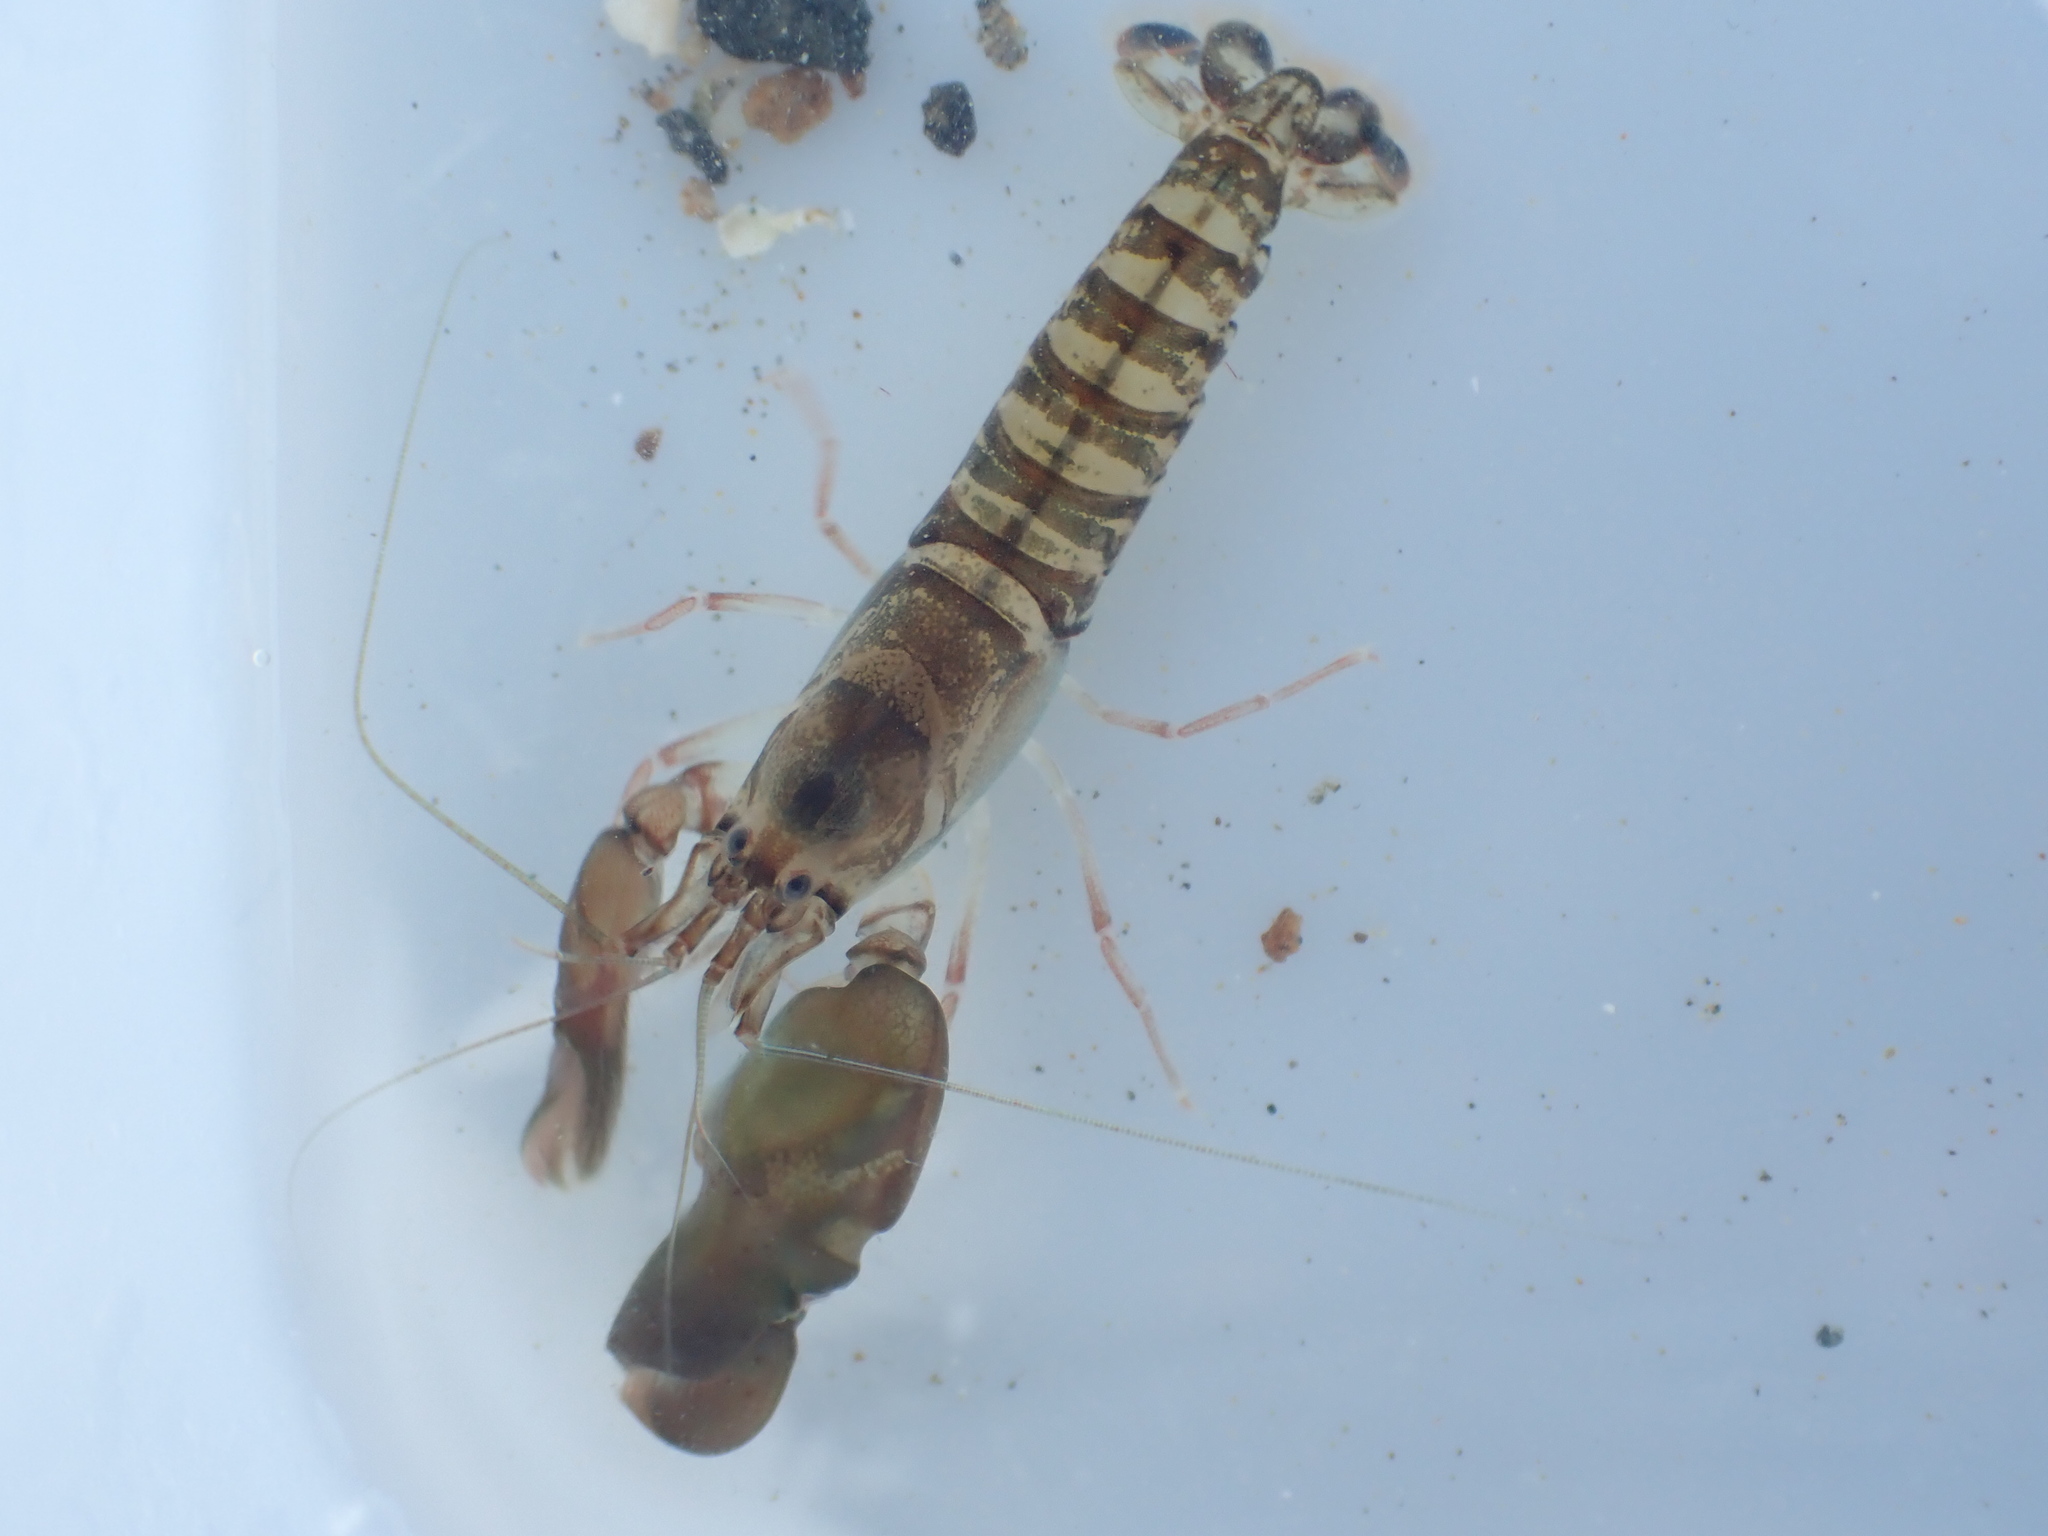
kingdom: Animalia
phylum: Arthropoda
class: Malacostraca
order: Decapoda
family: Alpheidae
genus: Alpheus
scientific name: Alpheus richardsoni
